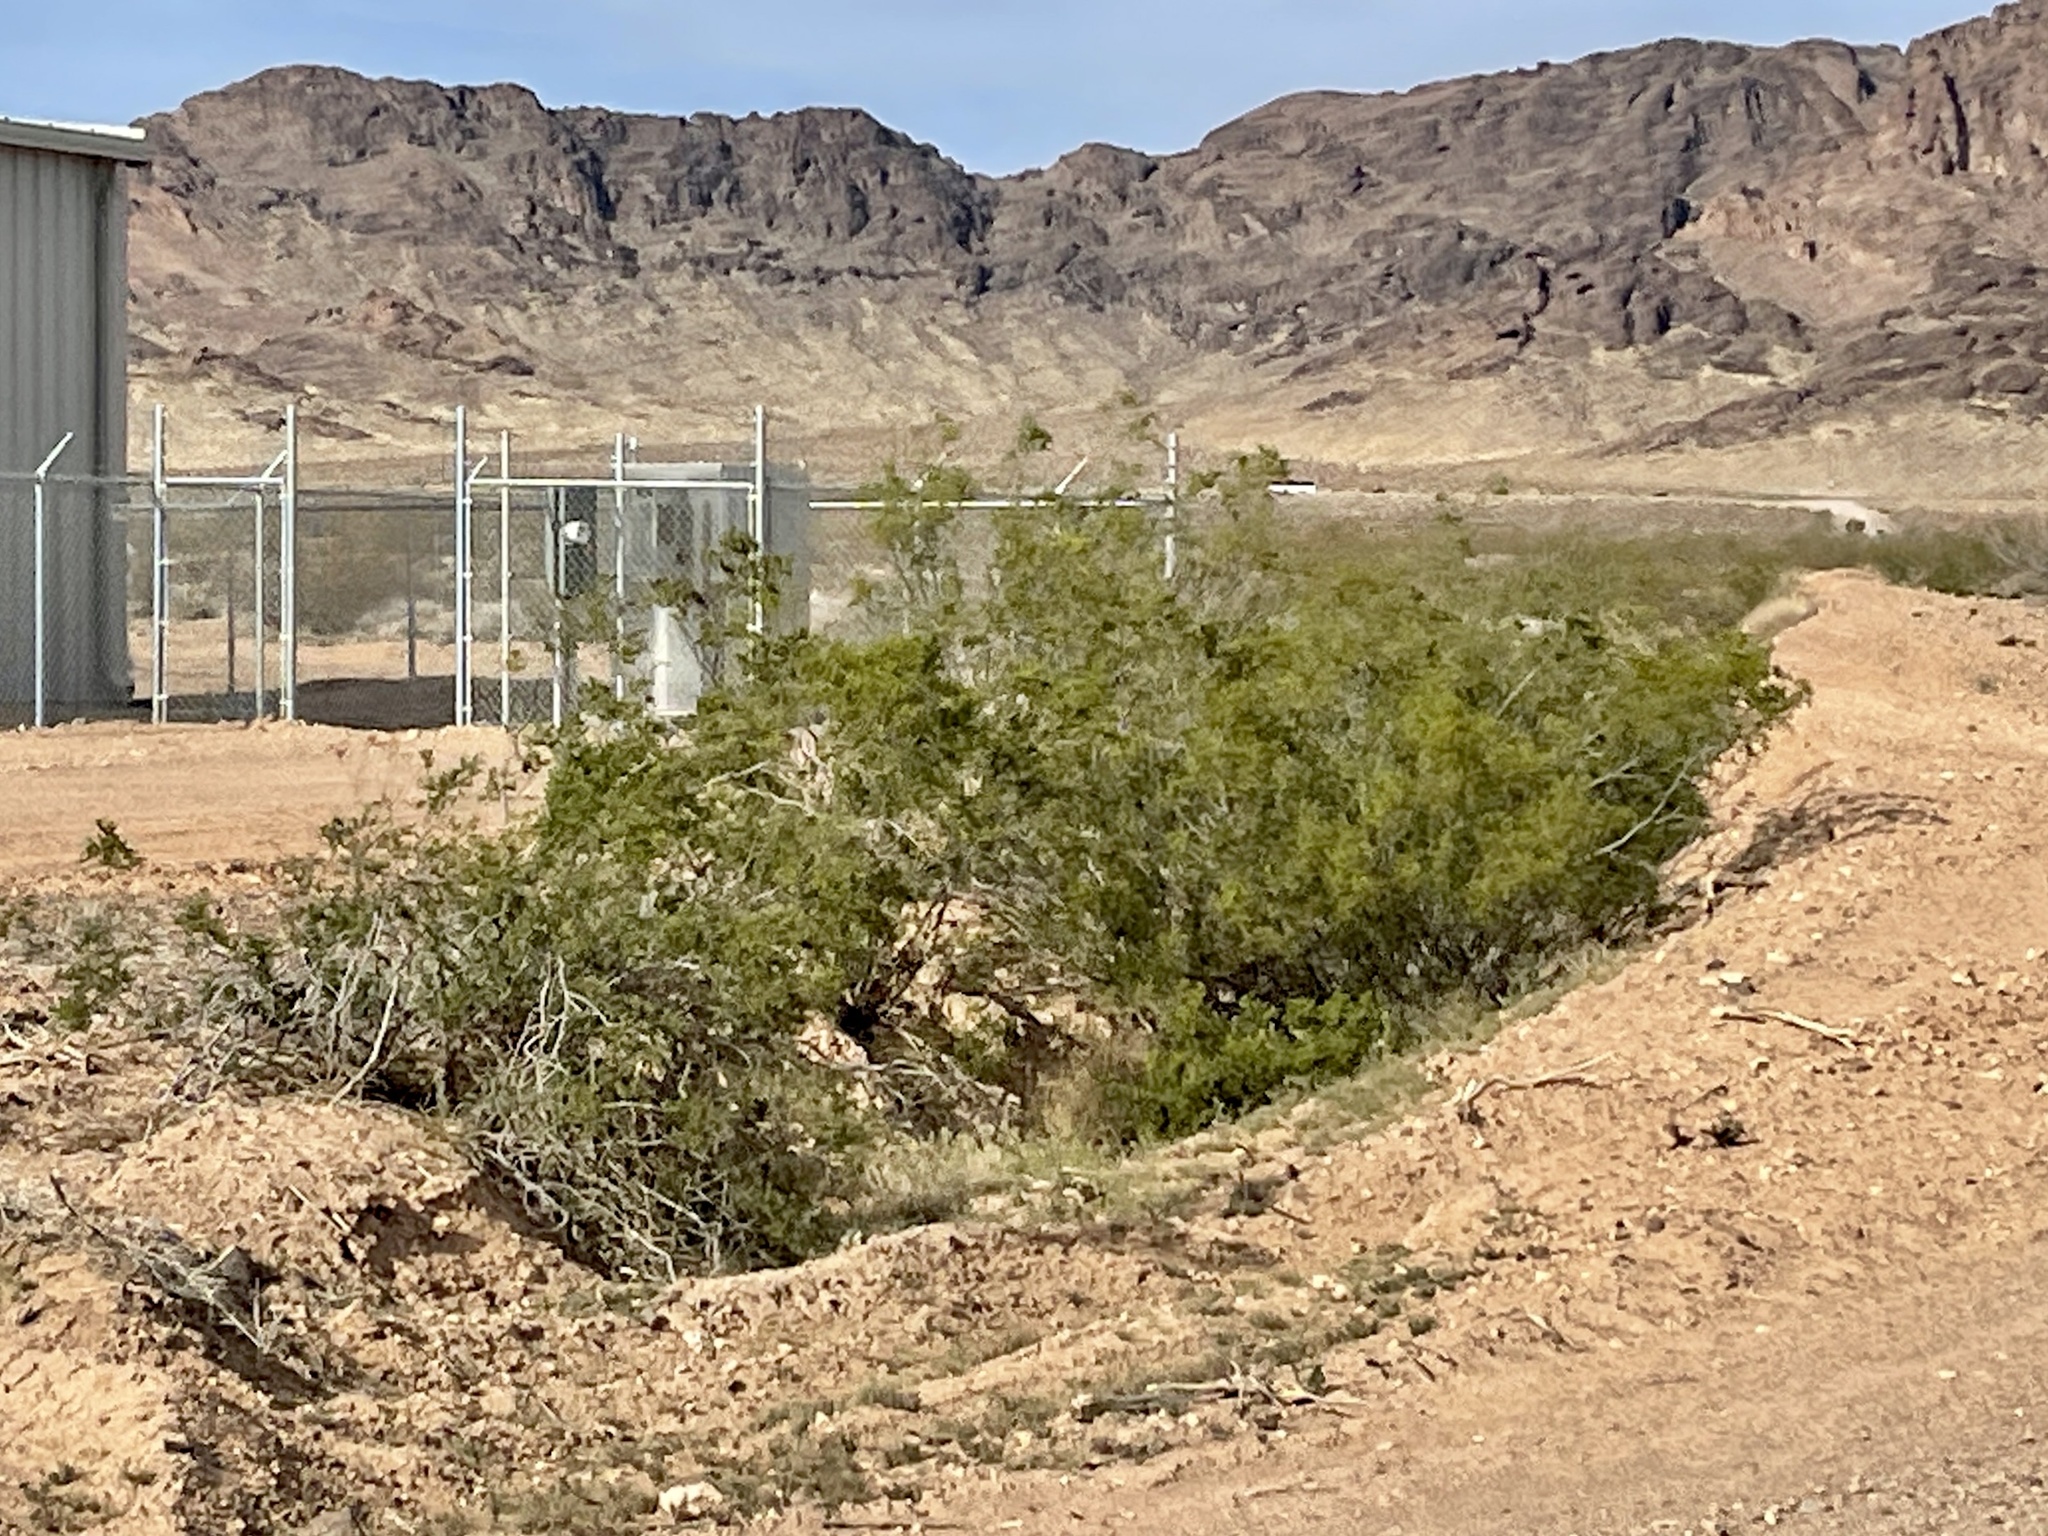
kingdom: Plantae
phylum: Tracheophyta
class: Magnoliopsida
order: Zygophyllales
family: Zygophyllaceae
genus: Larrea
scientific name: Larrea tridentata
